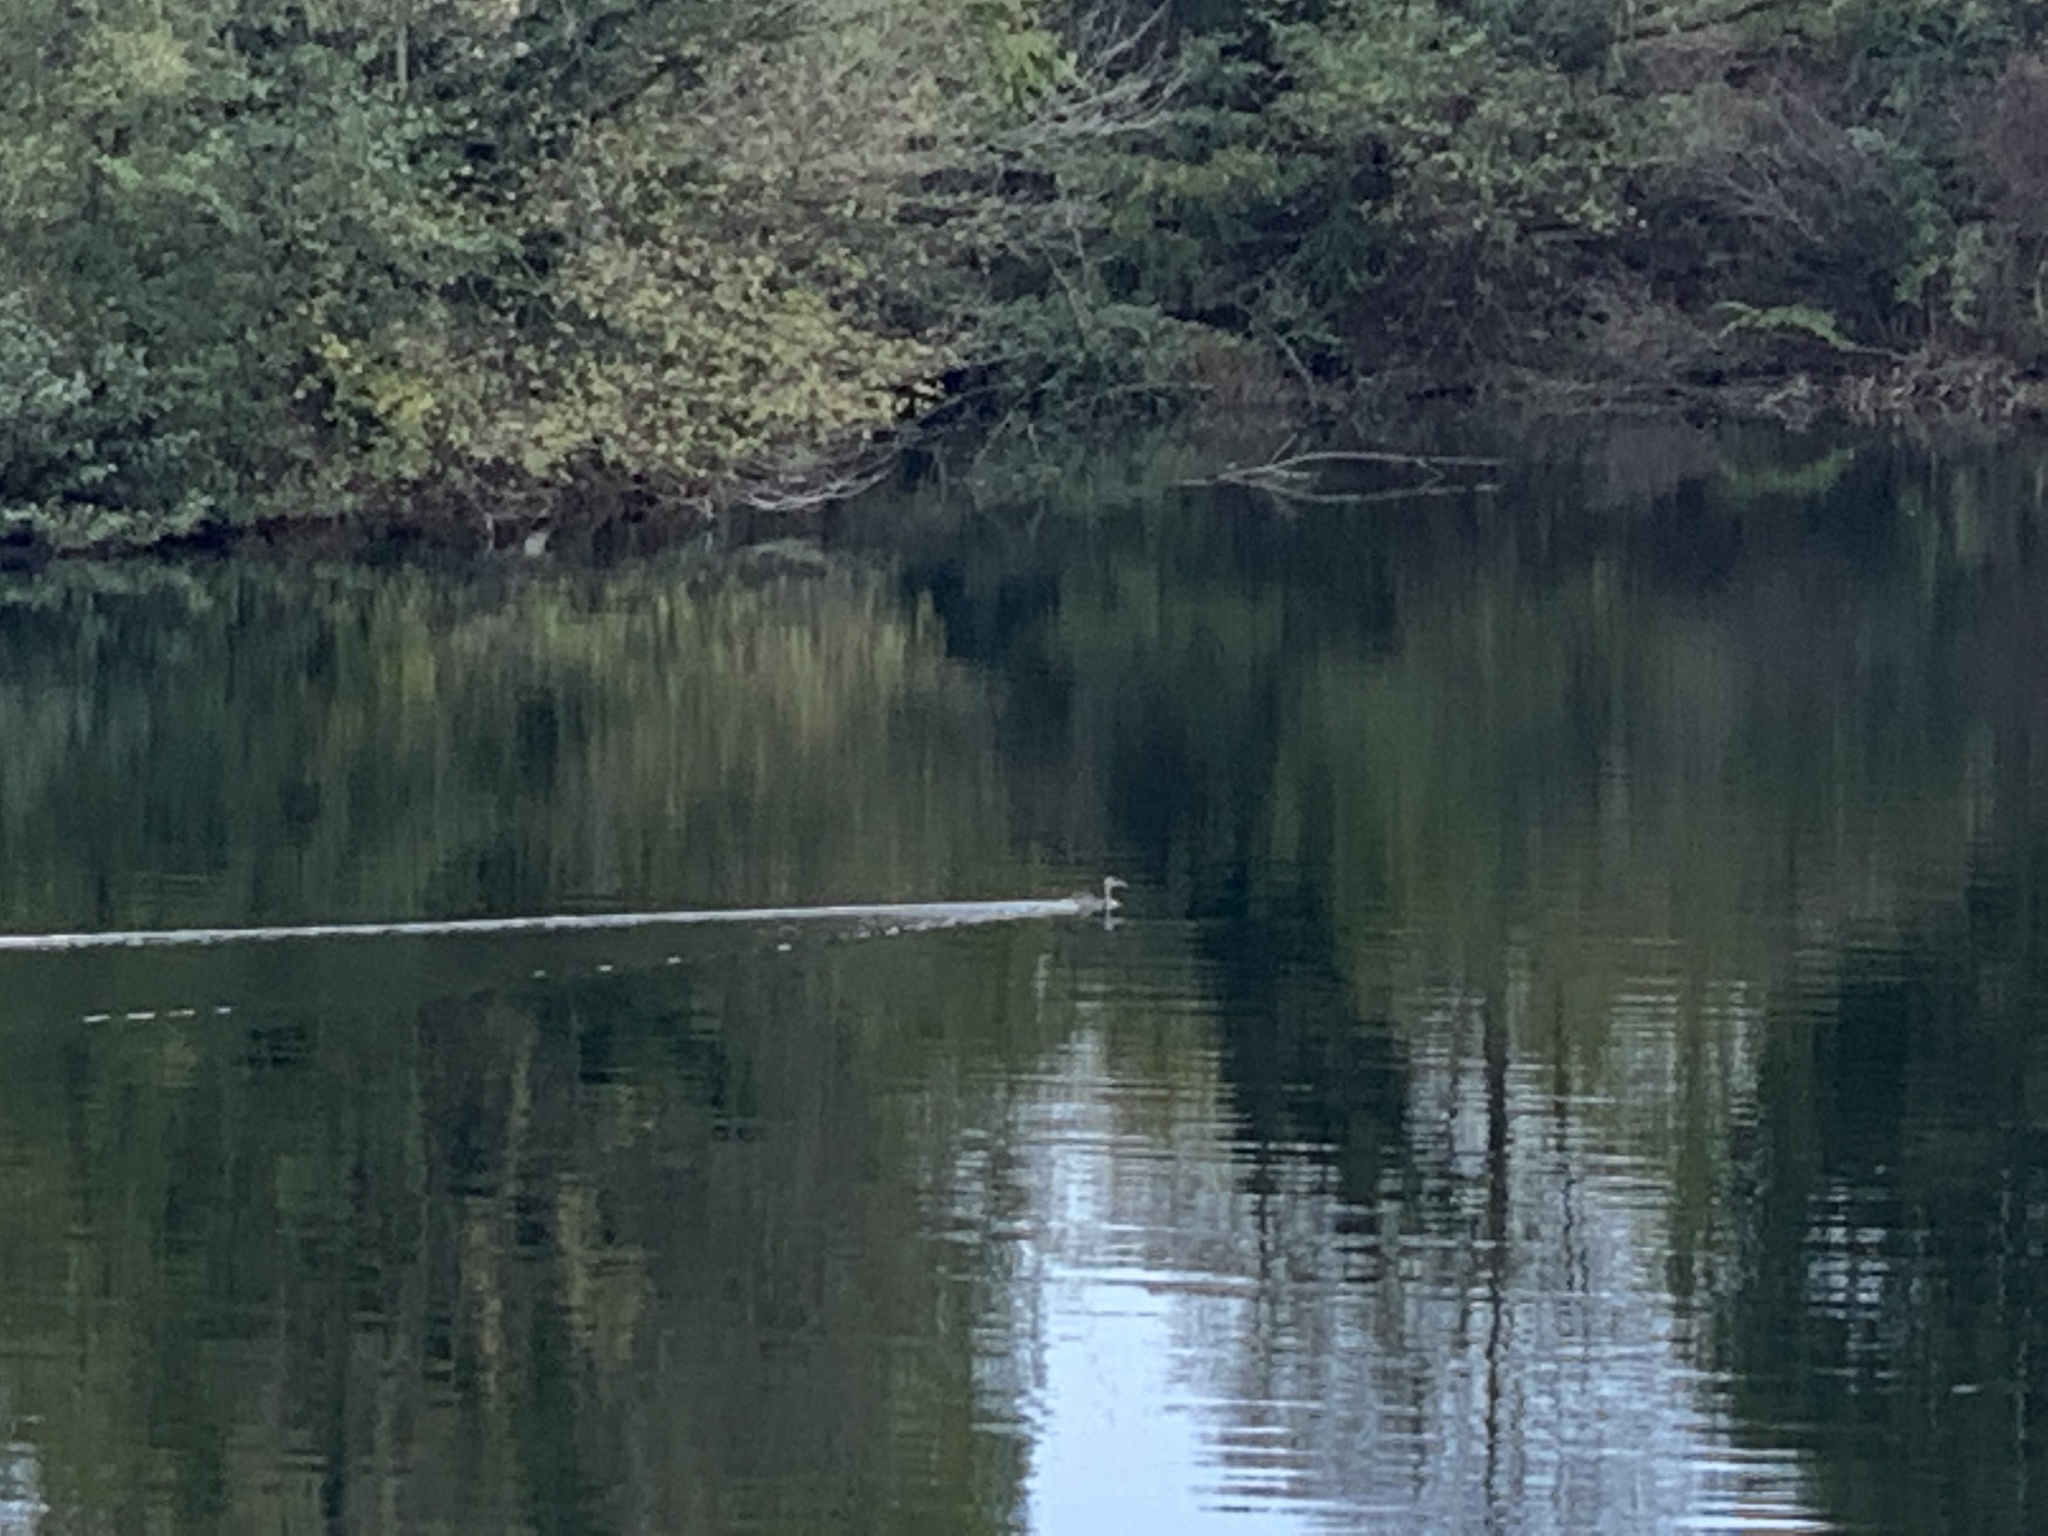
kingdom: Animalia
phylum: Chordata
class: Aves
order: Podicipediformes
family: Podicipedidae
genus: Podiceps
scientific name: Podiceps cristatus
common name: Great crested grebe
